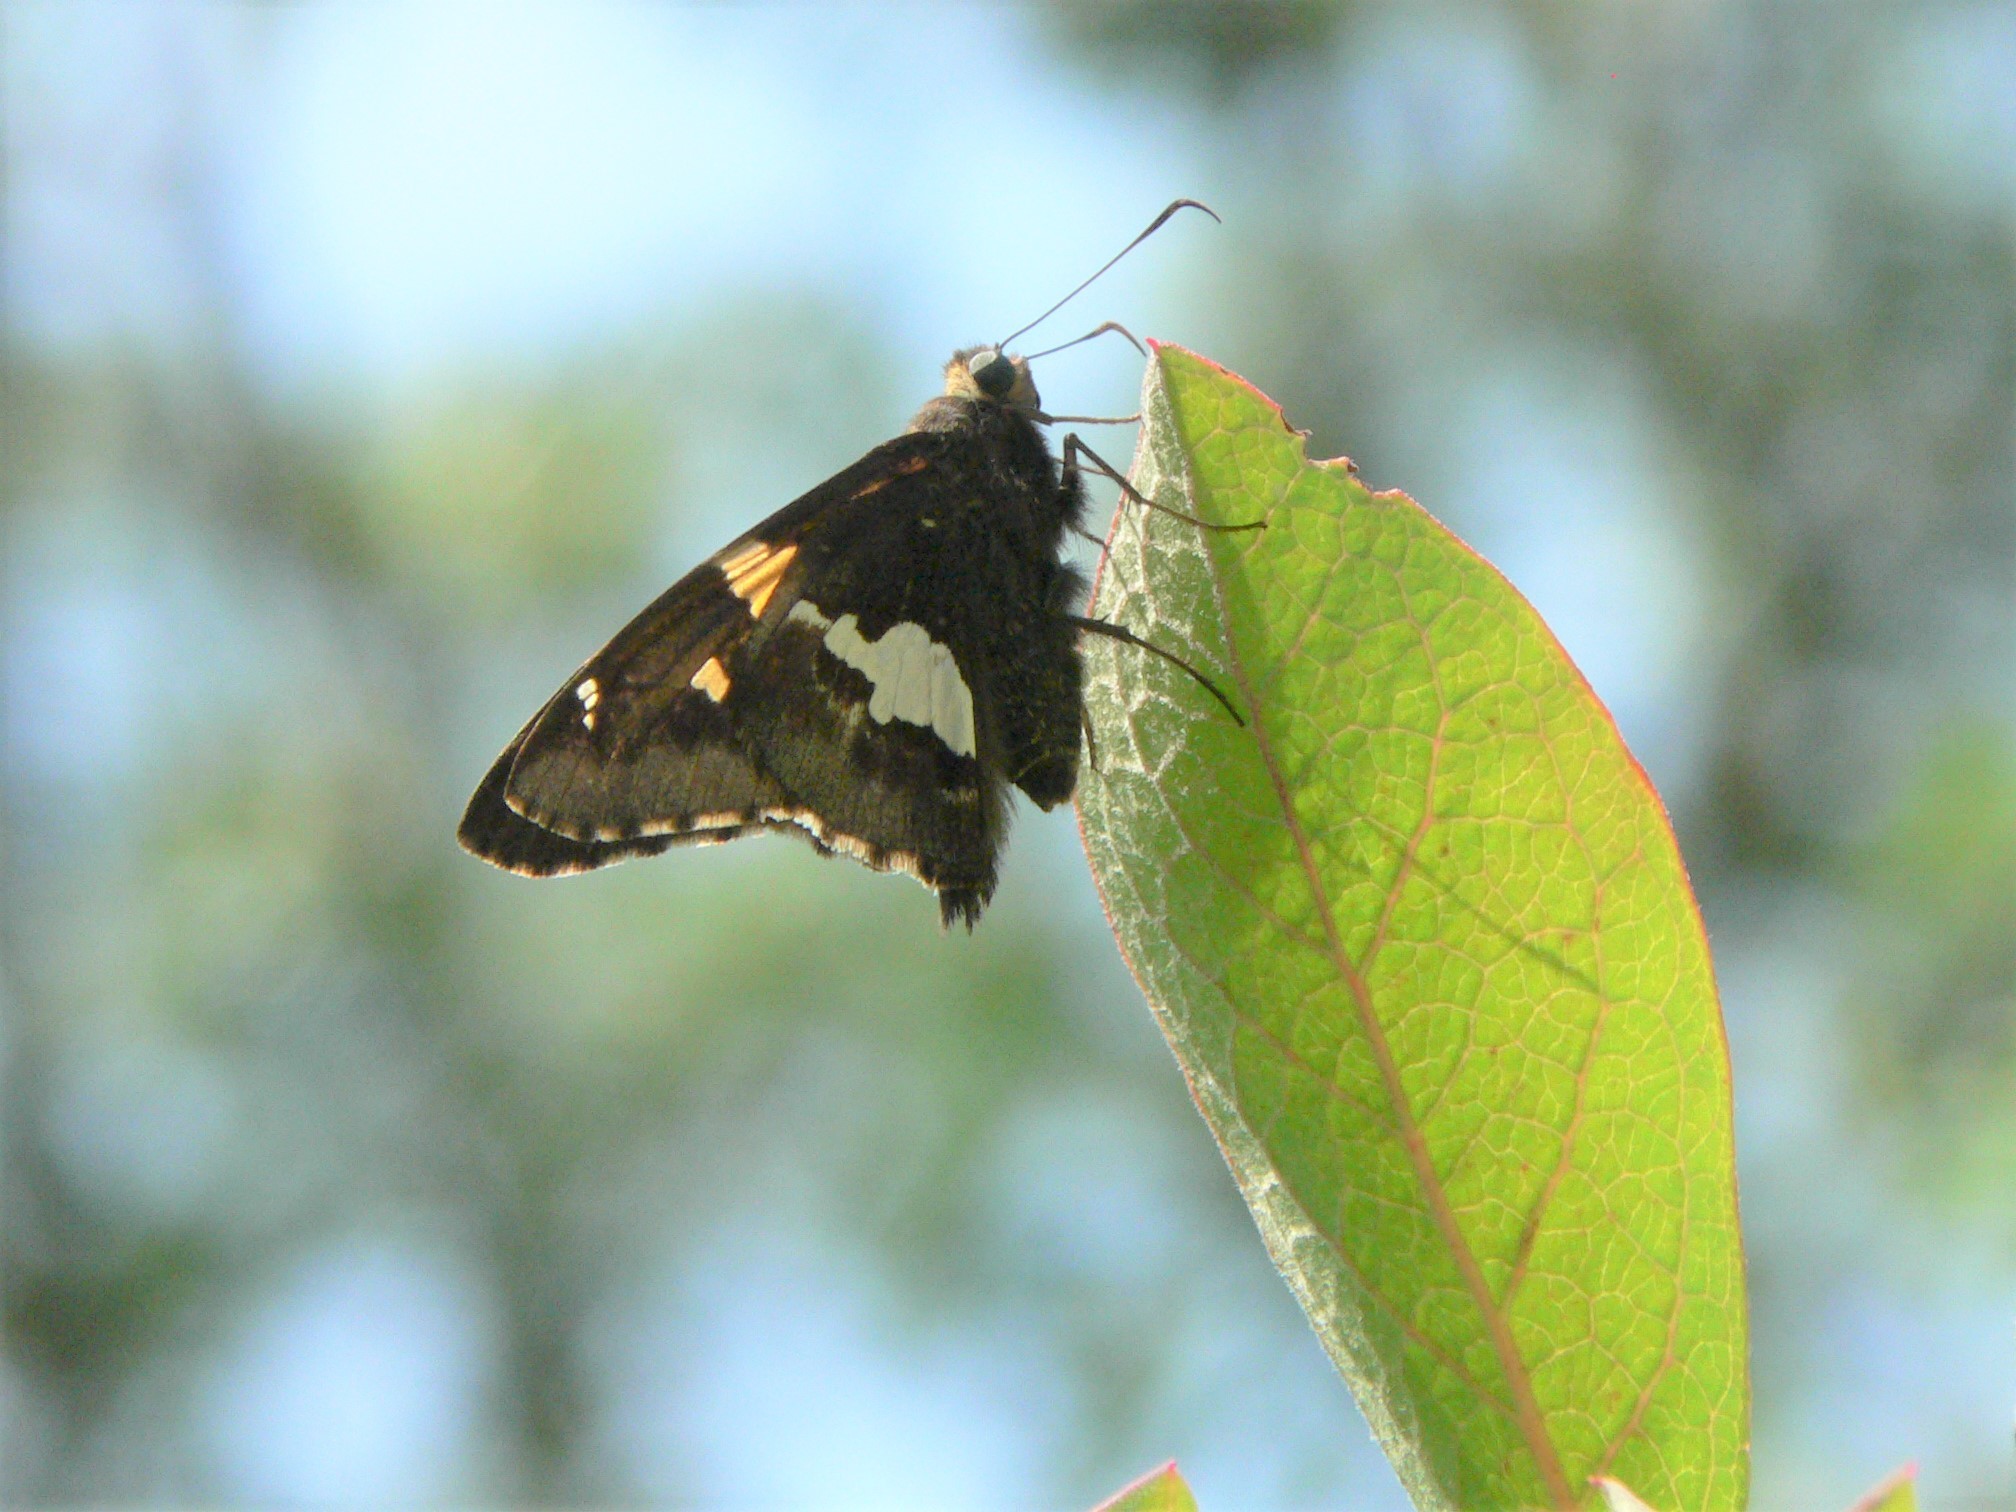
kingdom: Animalia
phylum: Arthropoda
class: Insecta
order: Lepidoptera
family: Hesperiidae
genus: Epargyreus
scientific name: Epargyreus clarus
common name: Silver-spotted skipper
